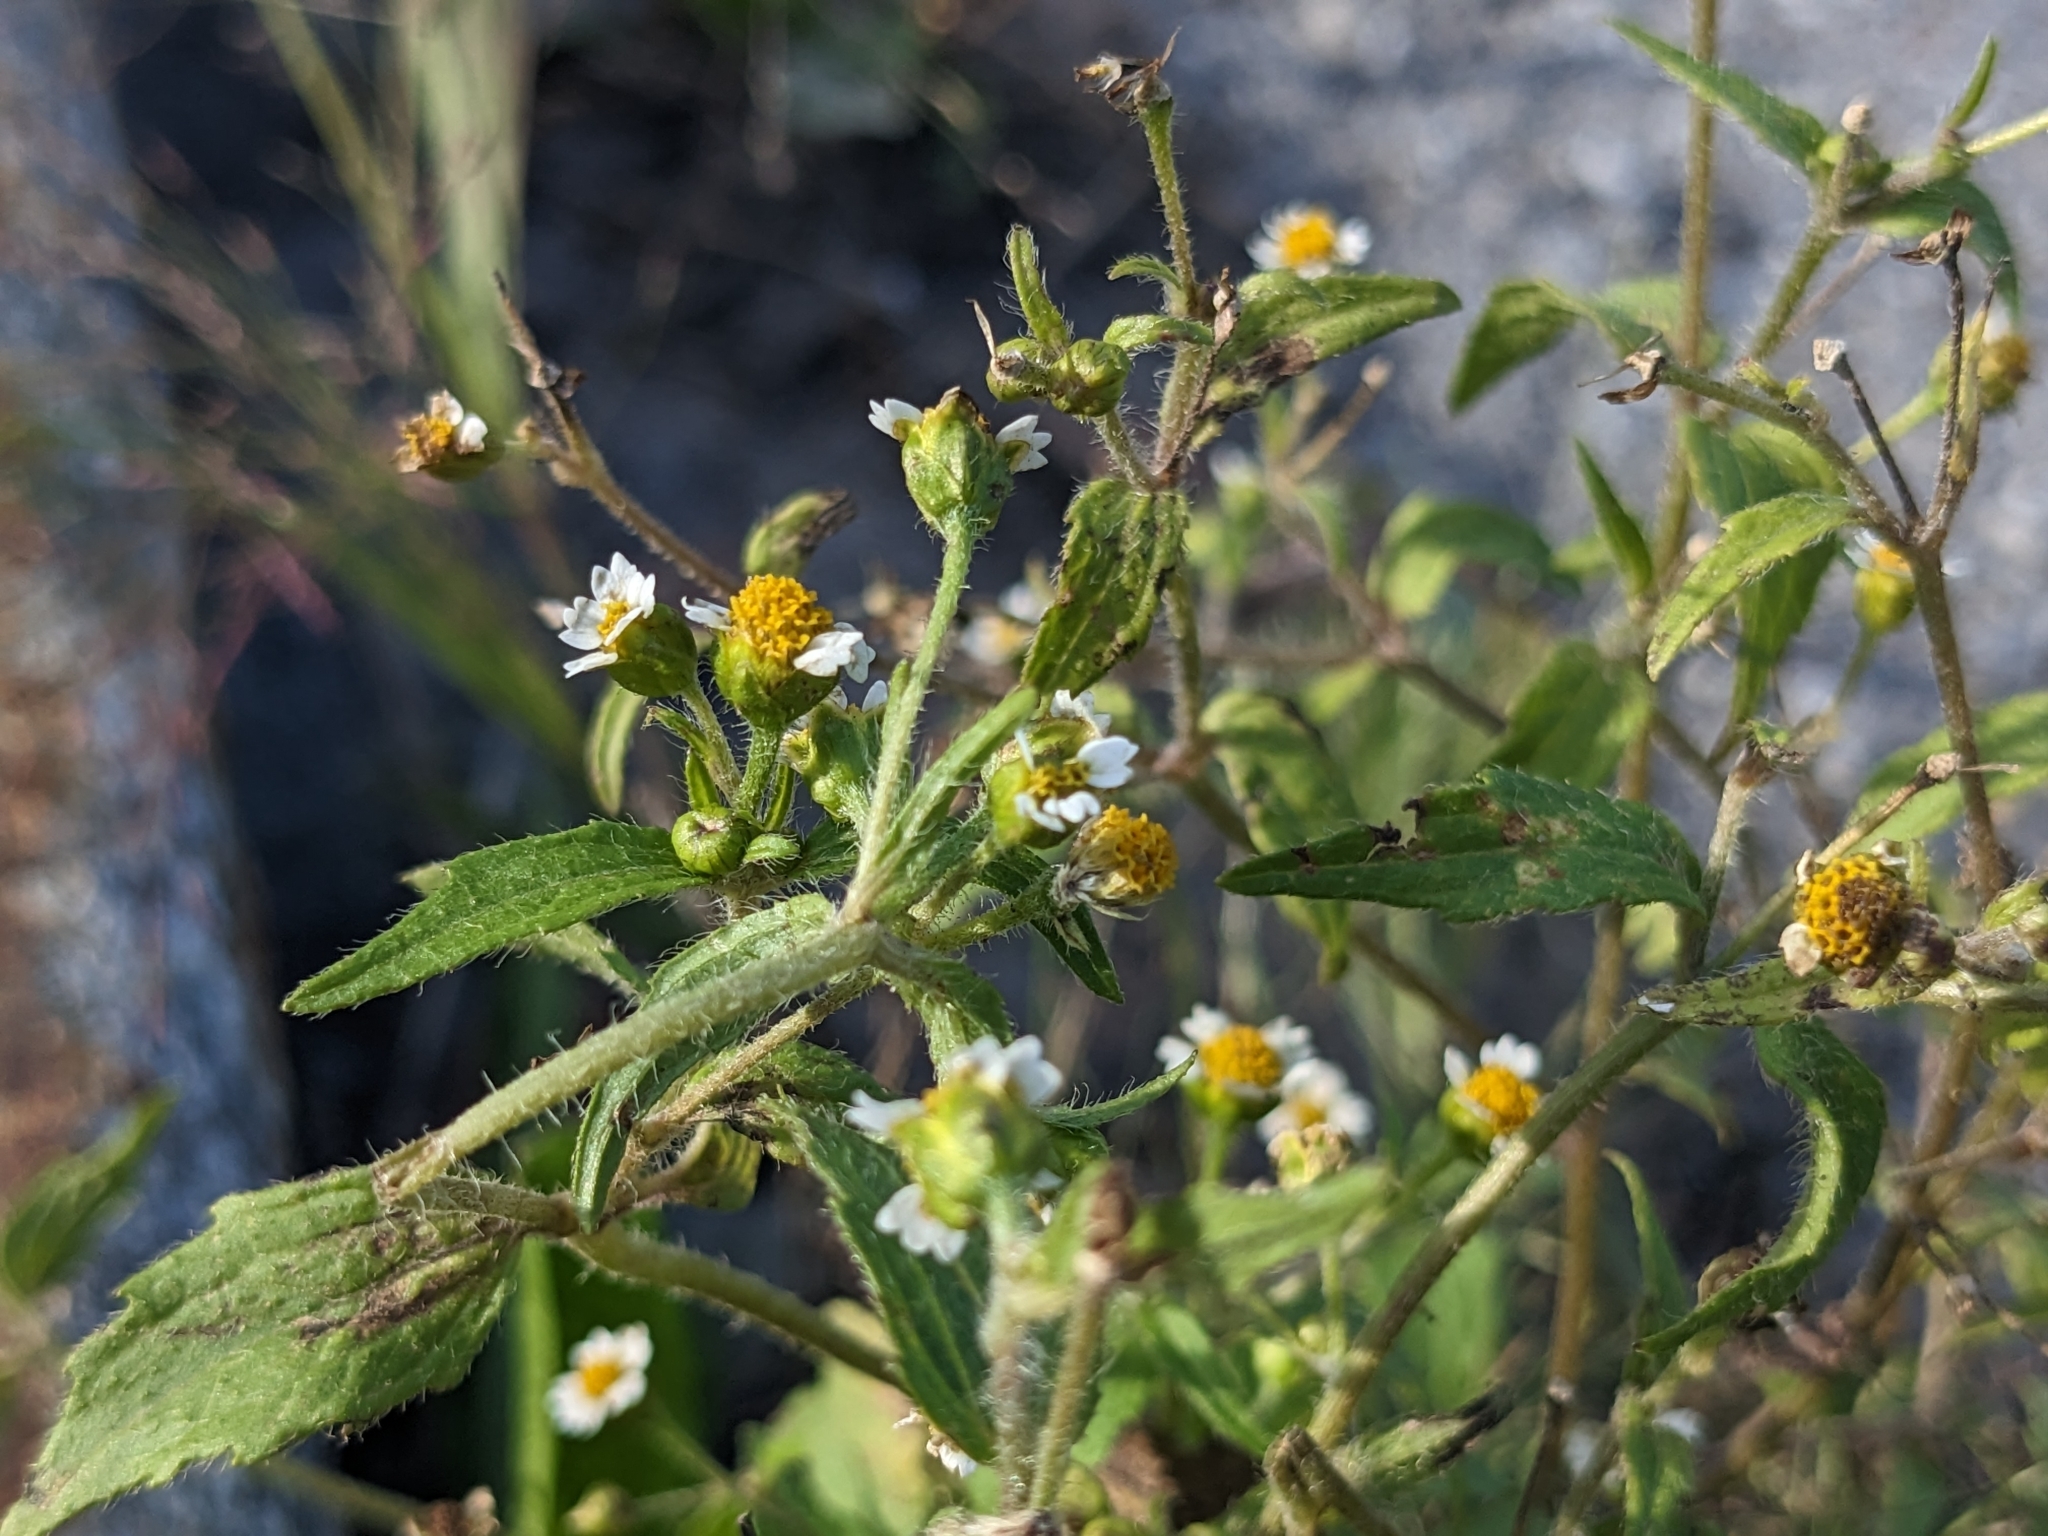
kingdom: Plantae
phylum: Tracheophyta
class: Magnoliopsida
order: Asterales
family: Asteraceae
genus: Galinsoga
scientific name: Galinsoga quadriradiata
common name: Shaggy soldier
